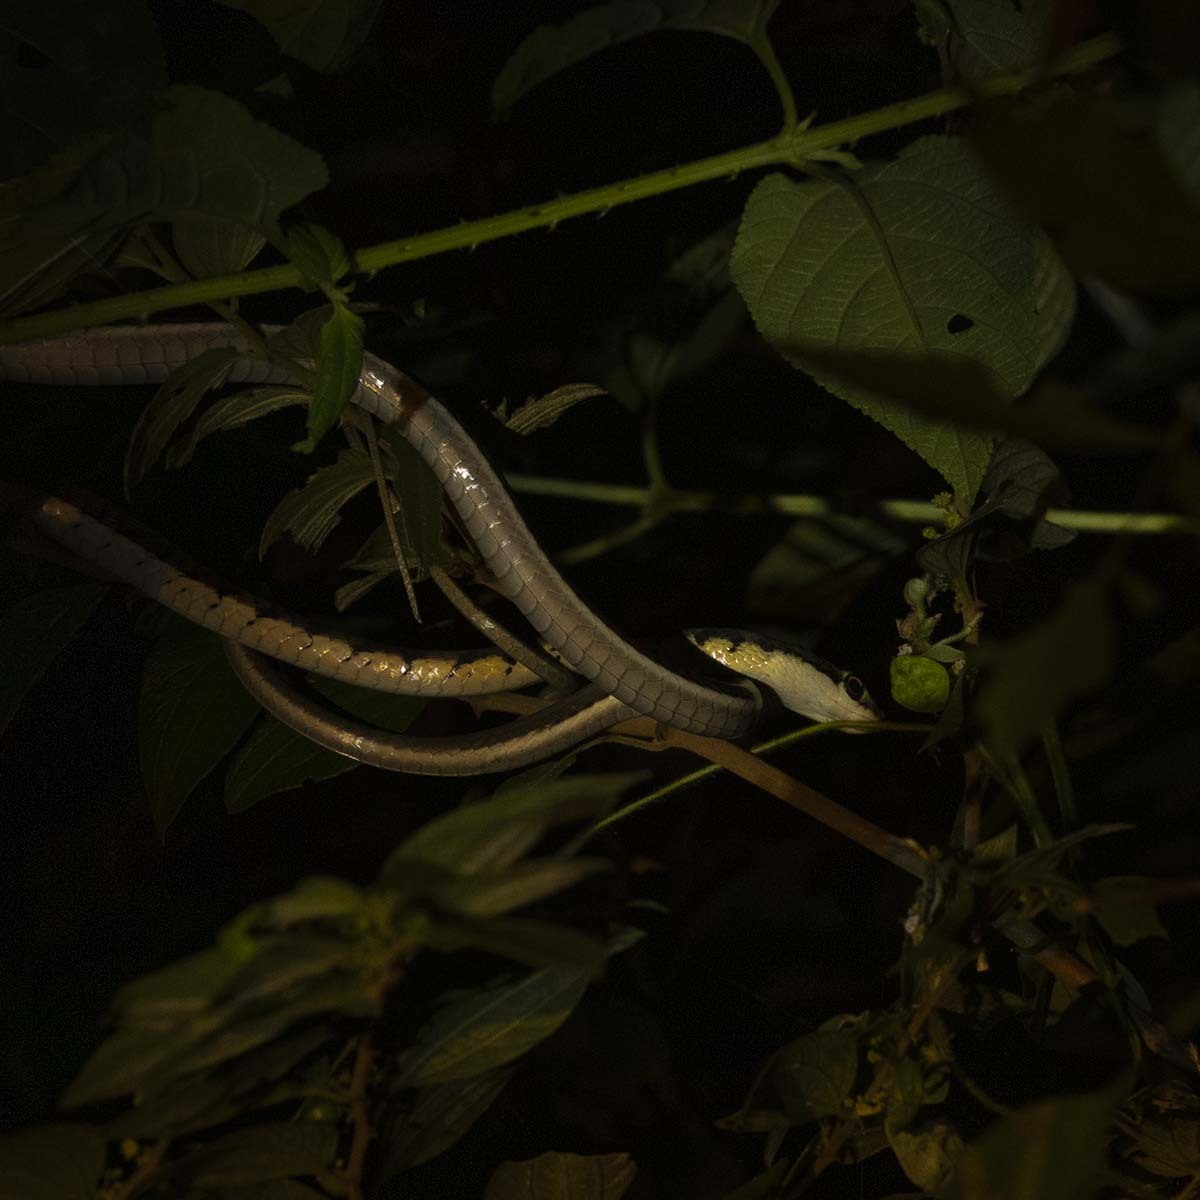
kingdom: Animalia
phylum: Chordata
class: Squamata
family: Colubridae
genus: Dendrelaphis
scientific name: Dendrelaphis tristis
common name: Daudin's bronzeback
